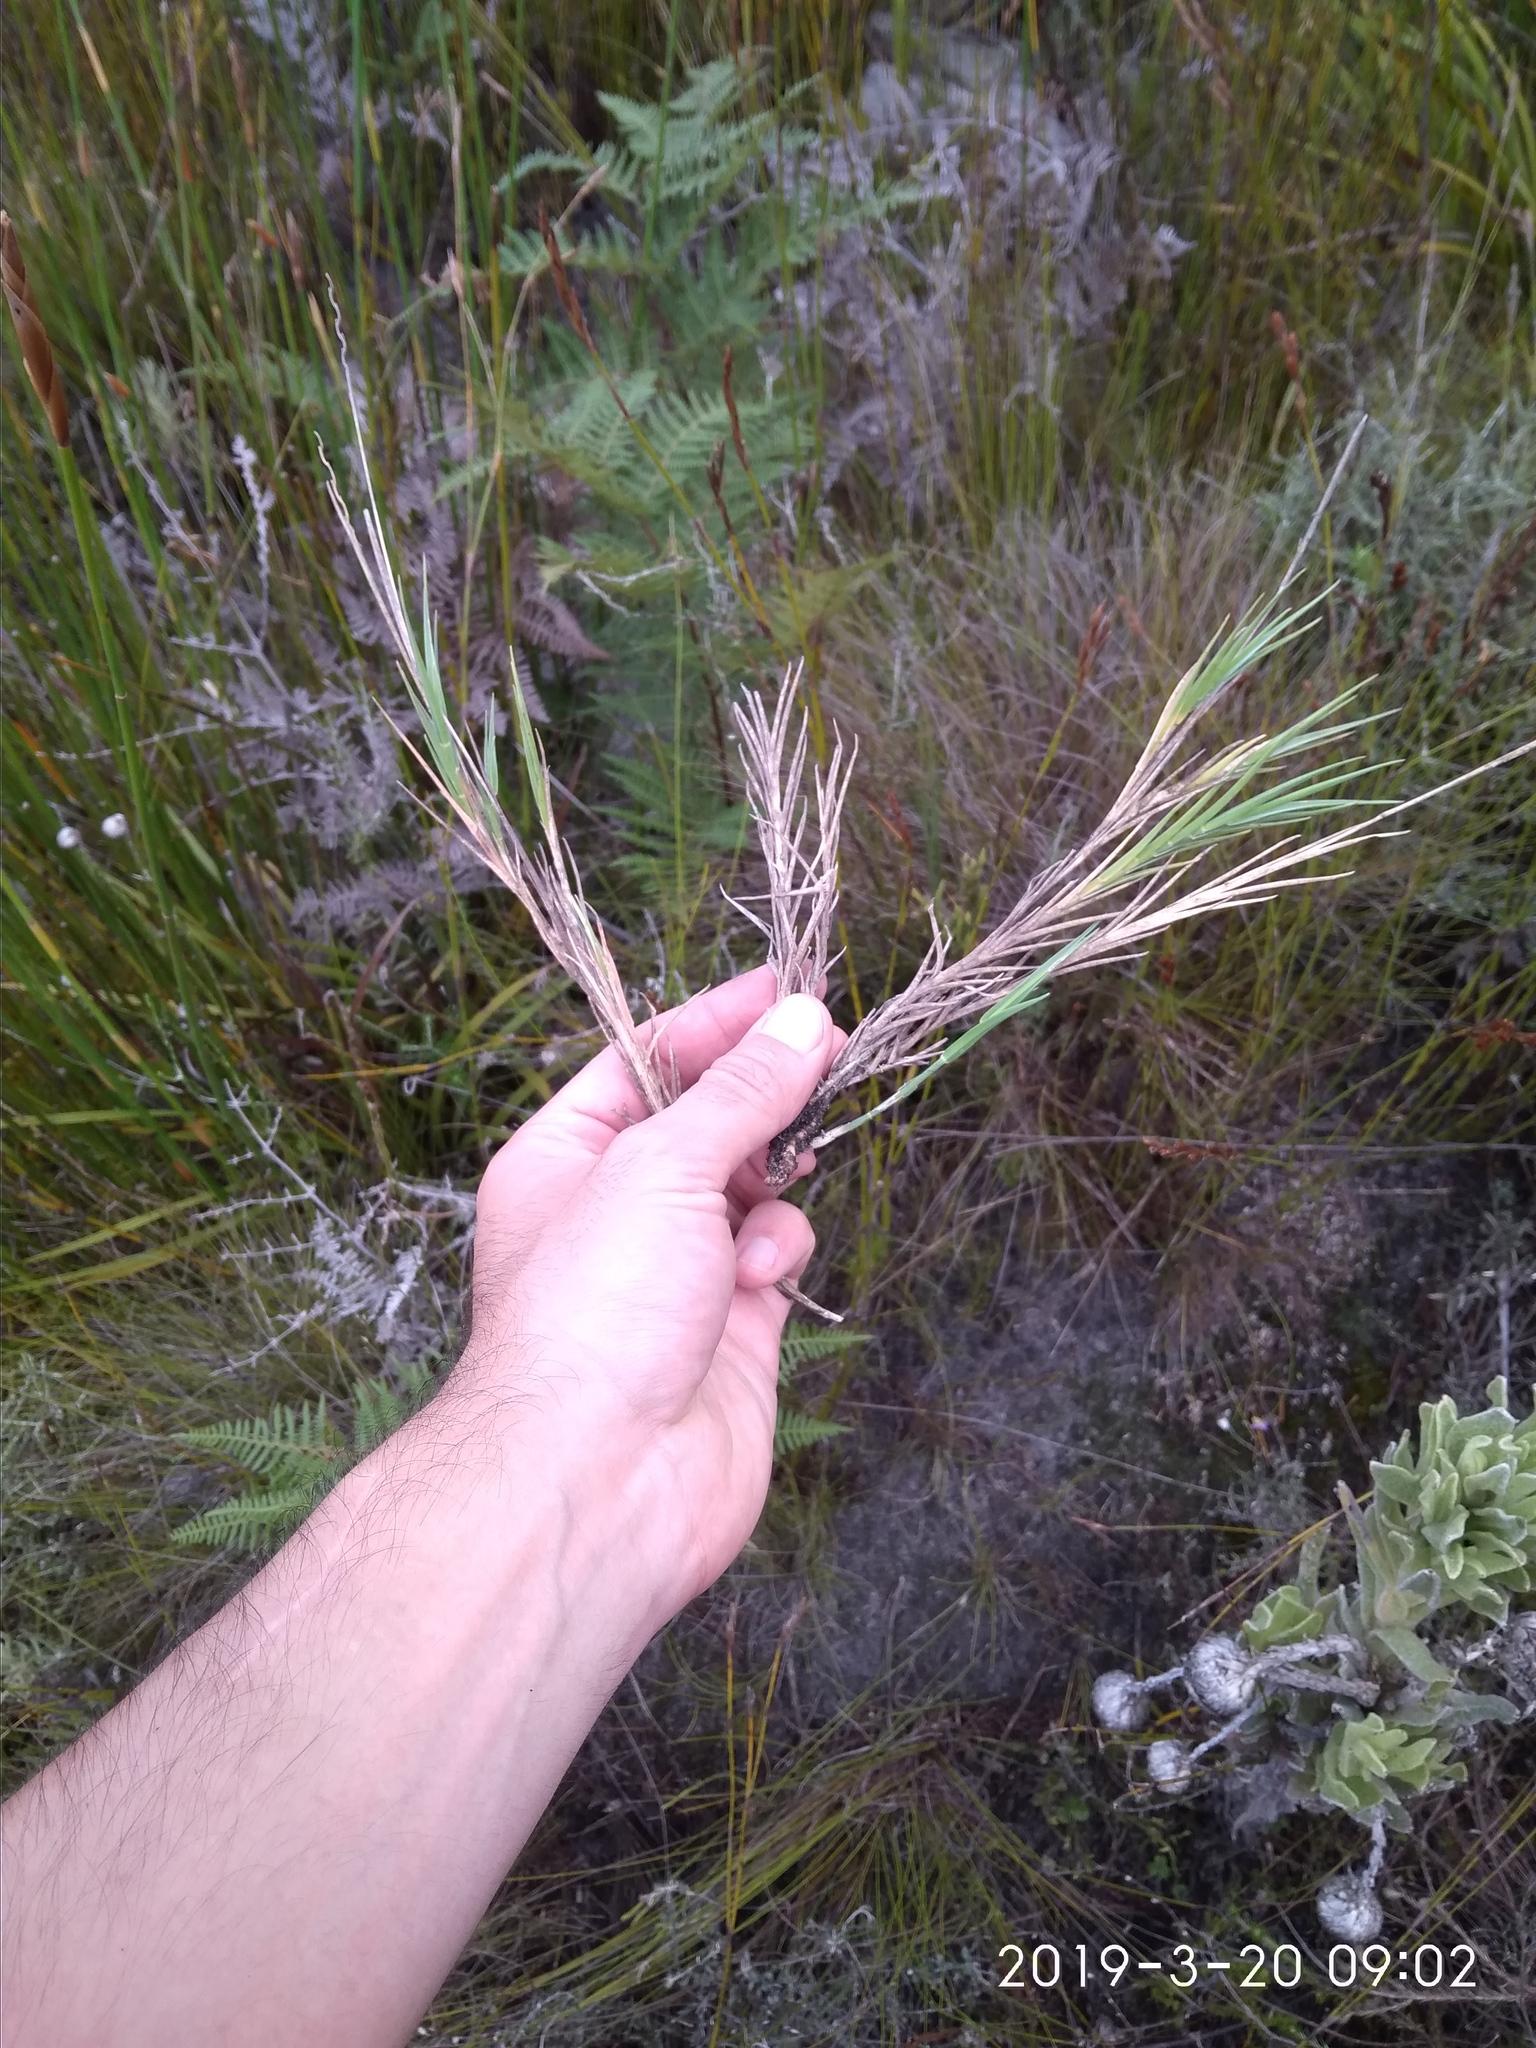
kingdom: Plantae
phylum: Tracheophyta
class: Liliopsida
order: Poales
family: Poaceae
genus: Ehrharta
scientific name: Ehrharta rupestris
